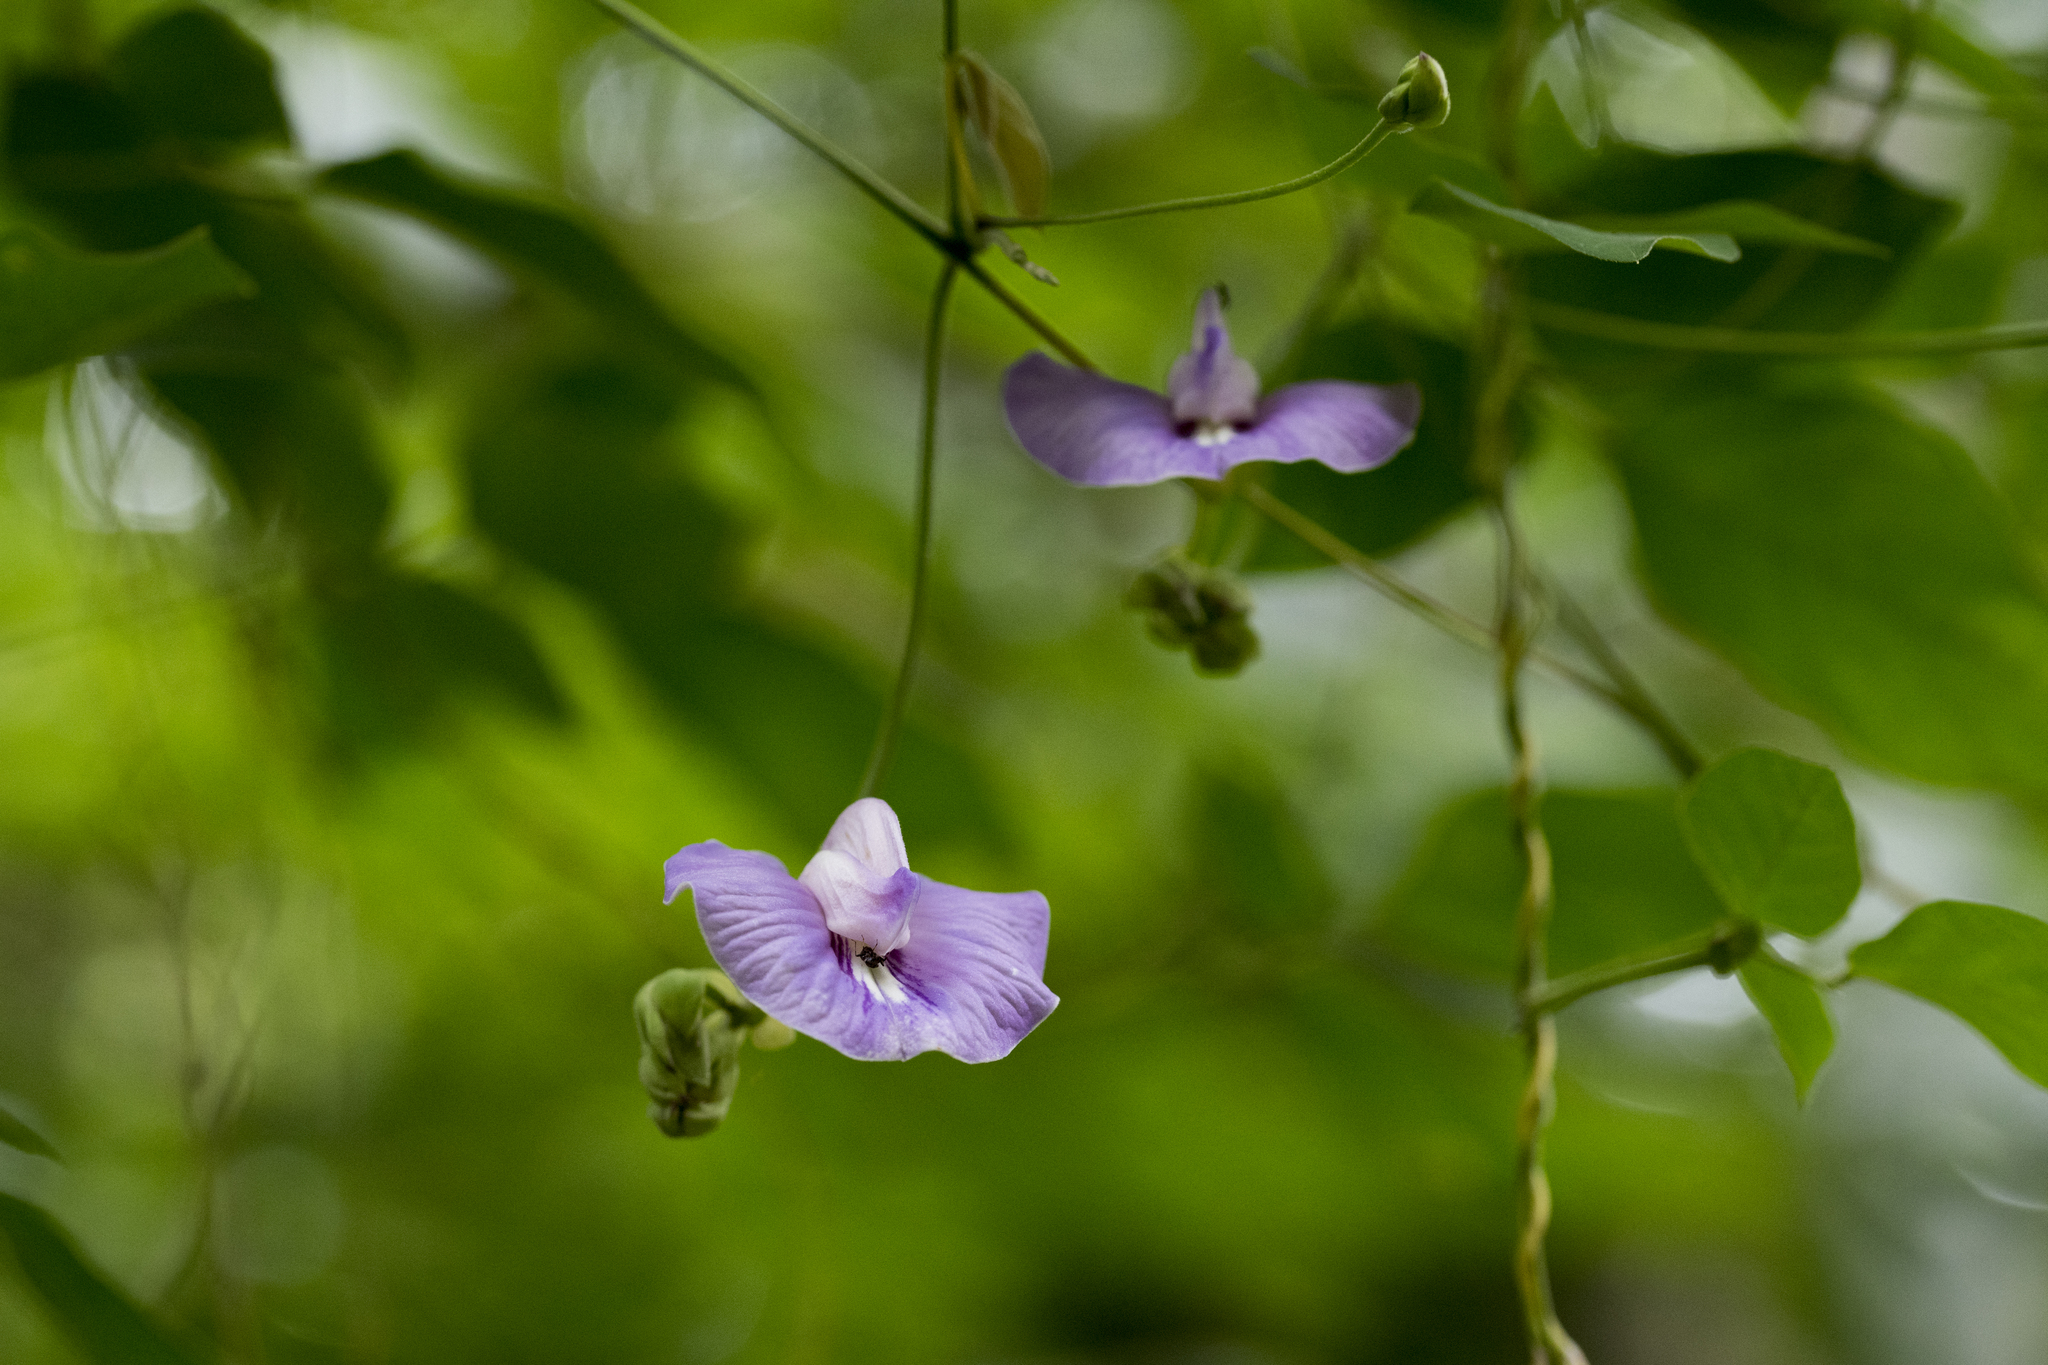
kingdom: Plantae
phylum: Tracheophyta
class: Magnoliopsida
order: Fabales
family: Fabaceae
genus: Centrosema
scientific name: Centrosema pubescens
